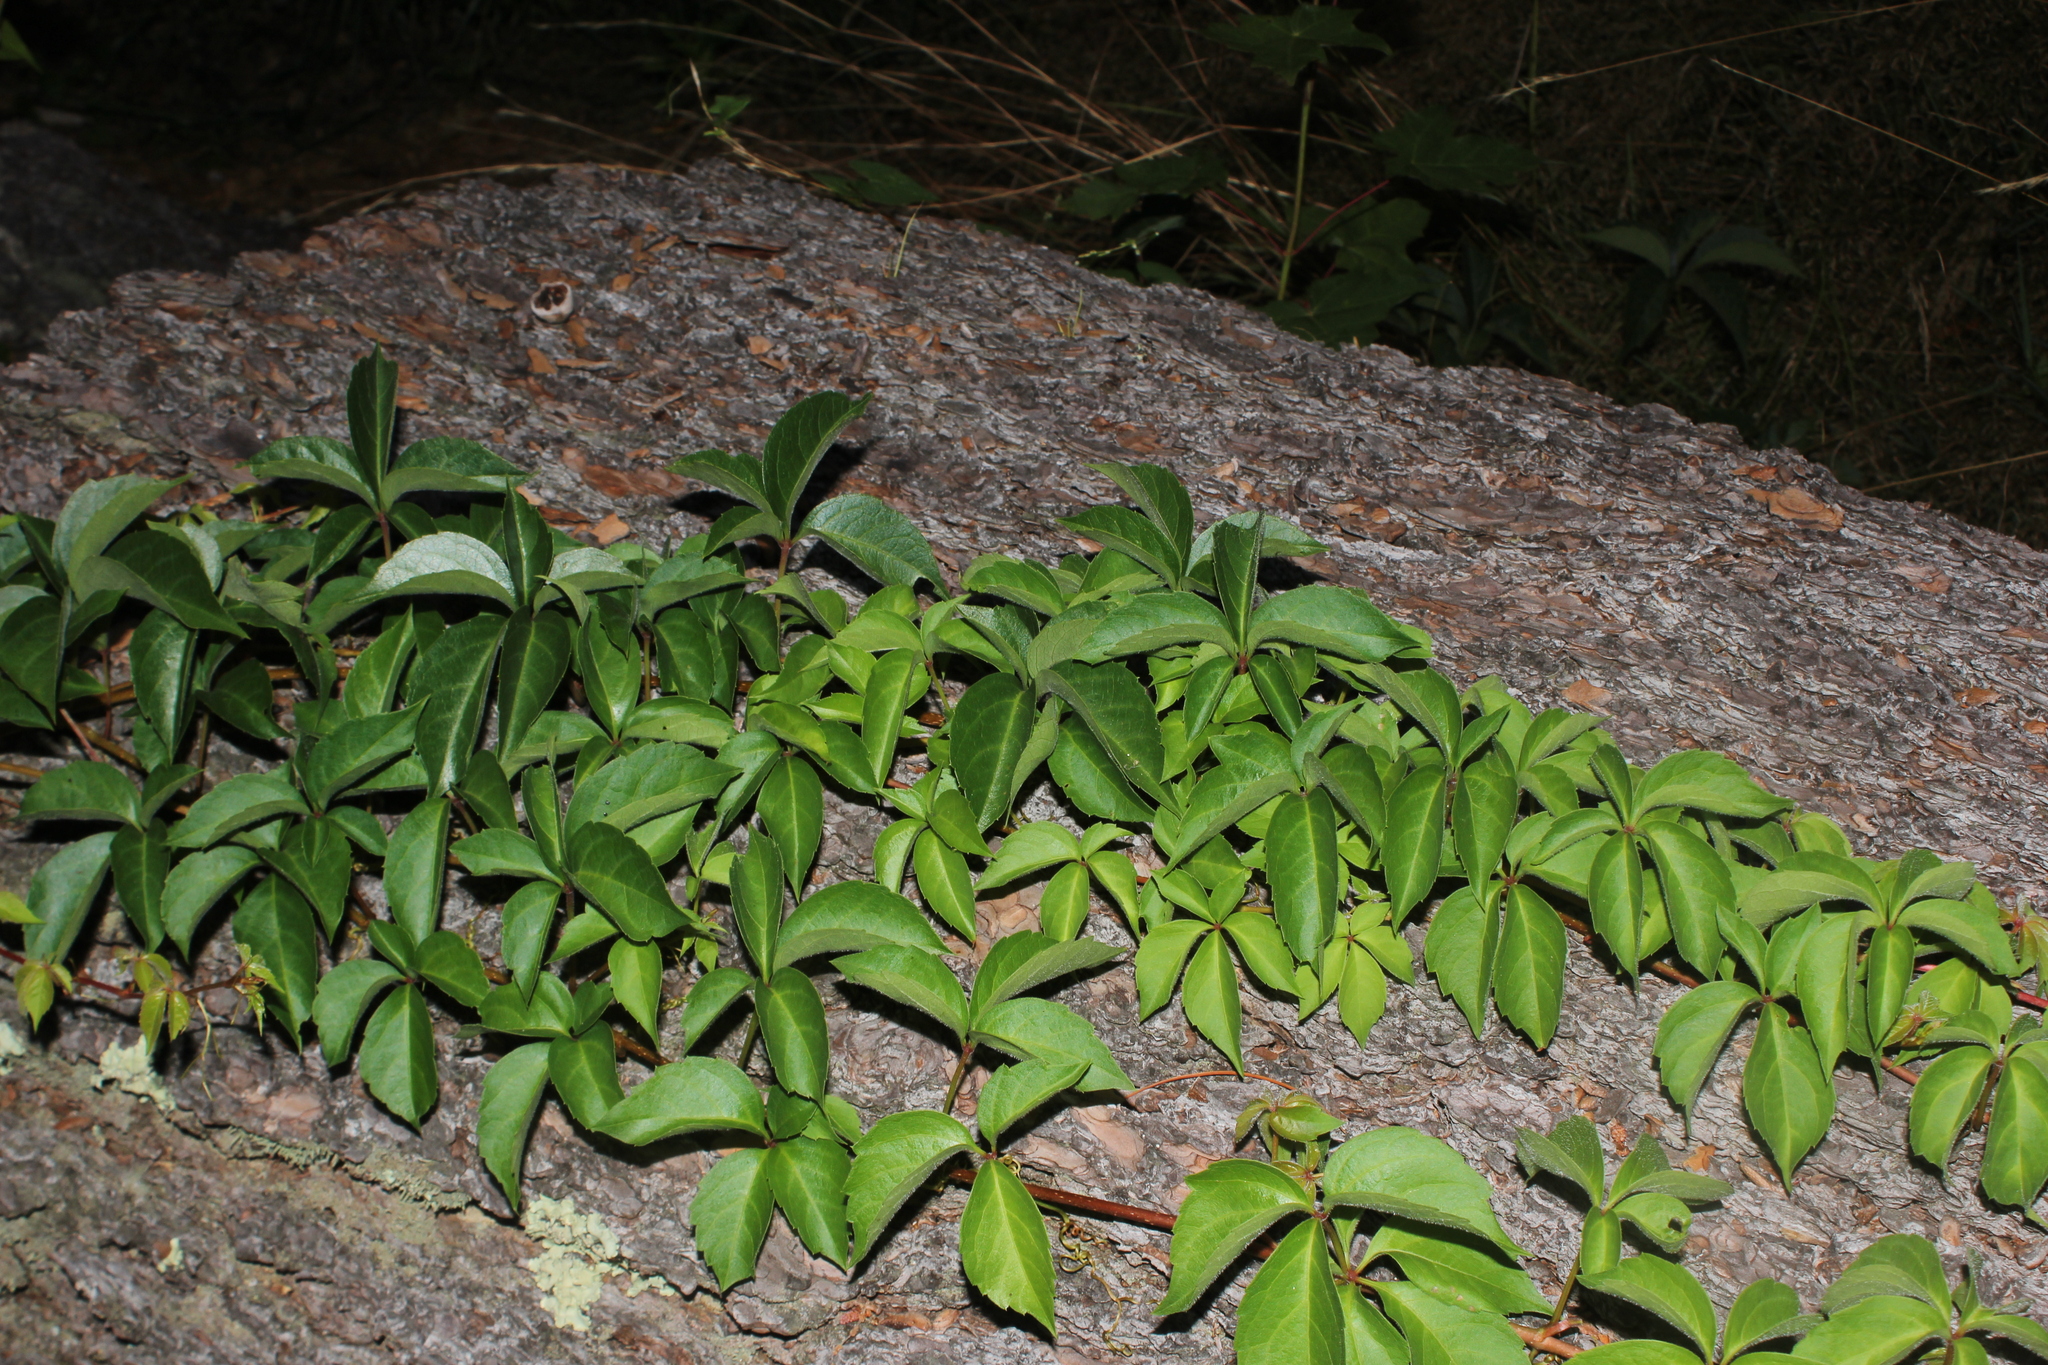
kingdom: Plantae
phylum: Tracheophyta
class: Magnoliopsida
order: Vitales
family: Vitaceae
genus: Parthenocissus
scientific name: Parthenocissus quinquefolia
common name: Virginia-creeper
